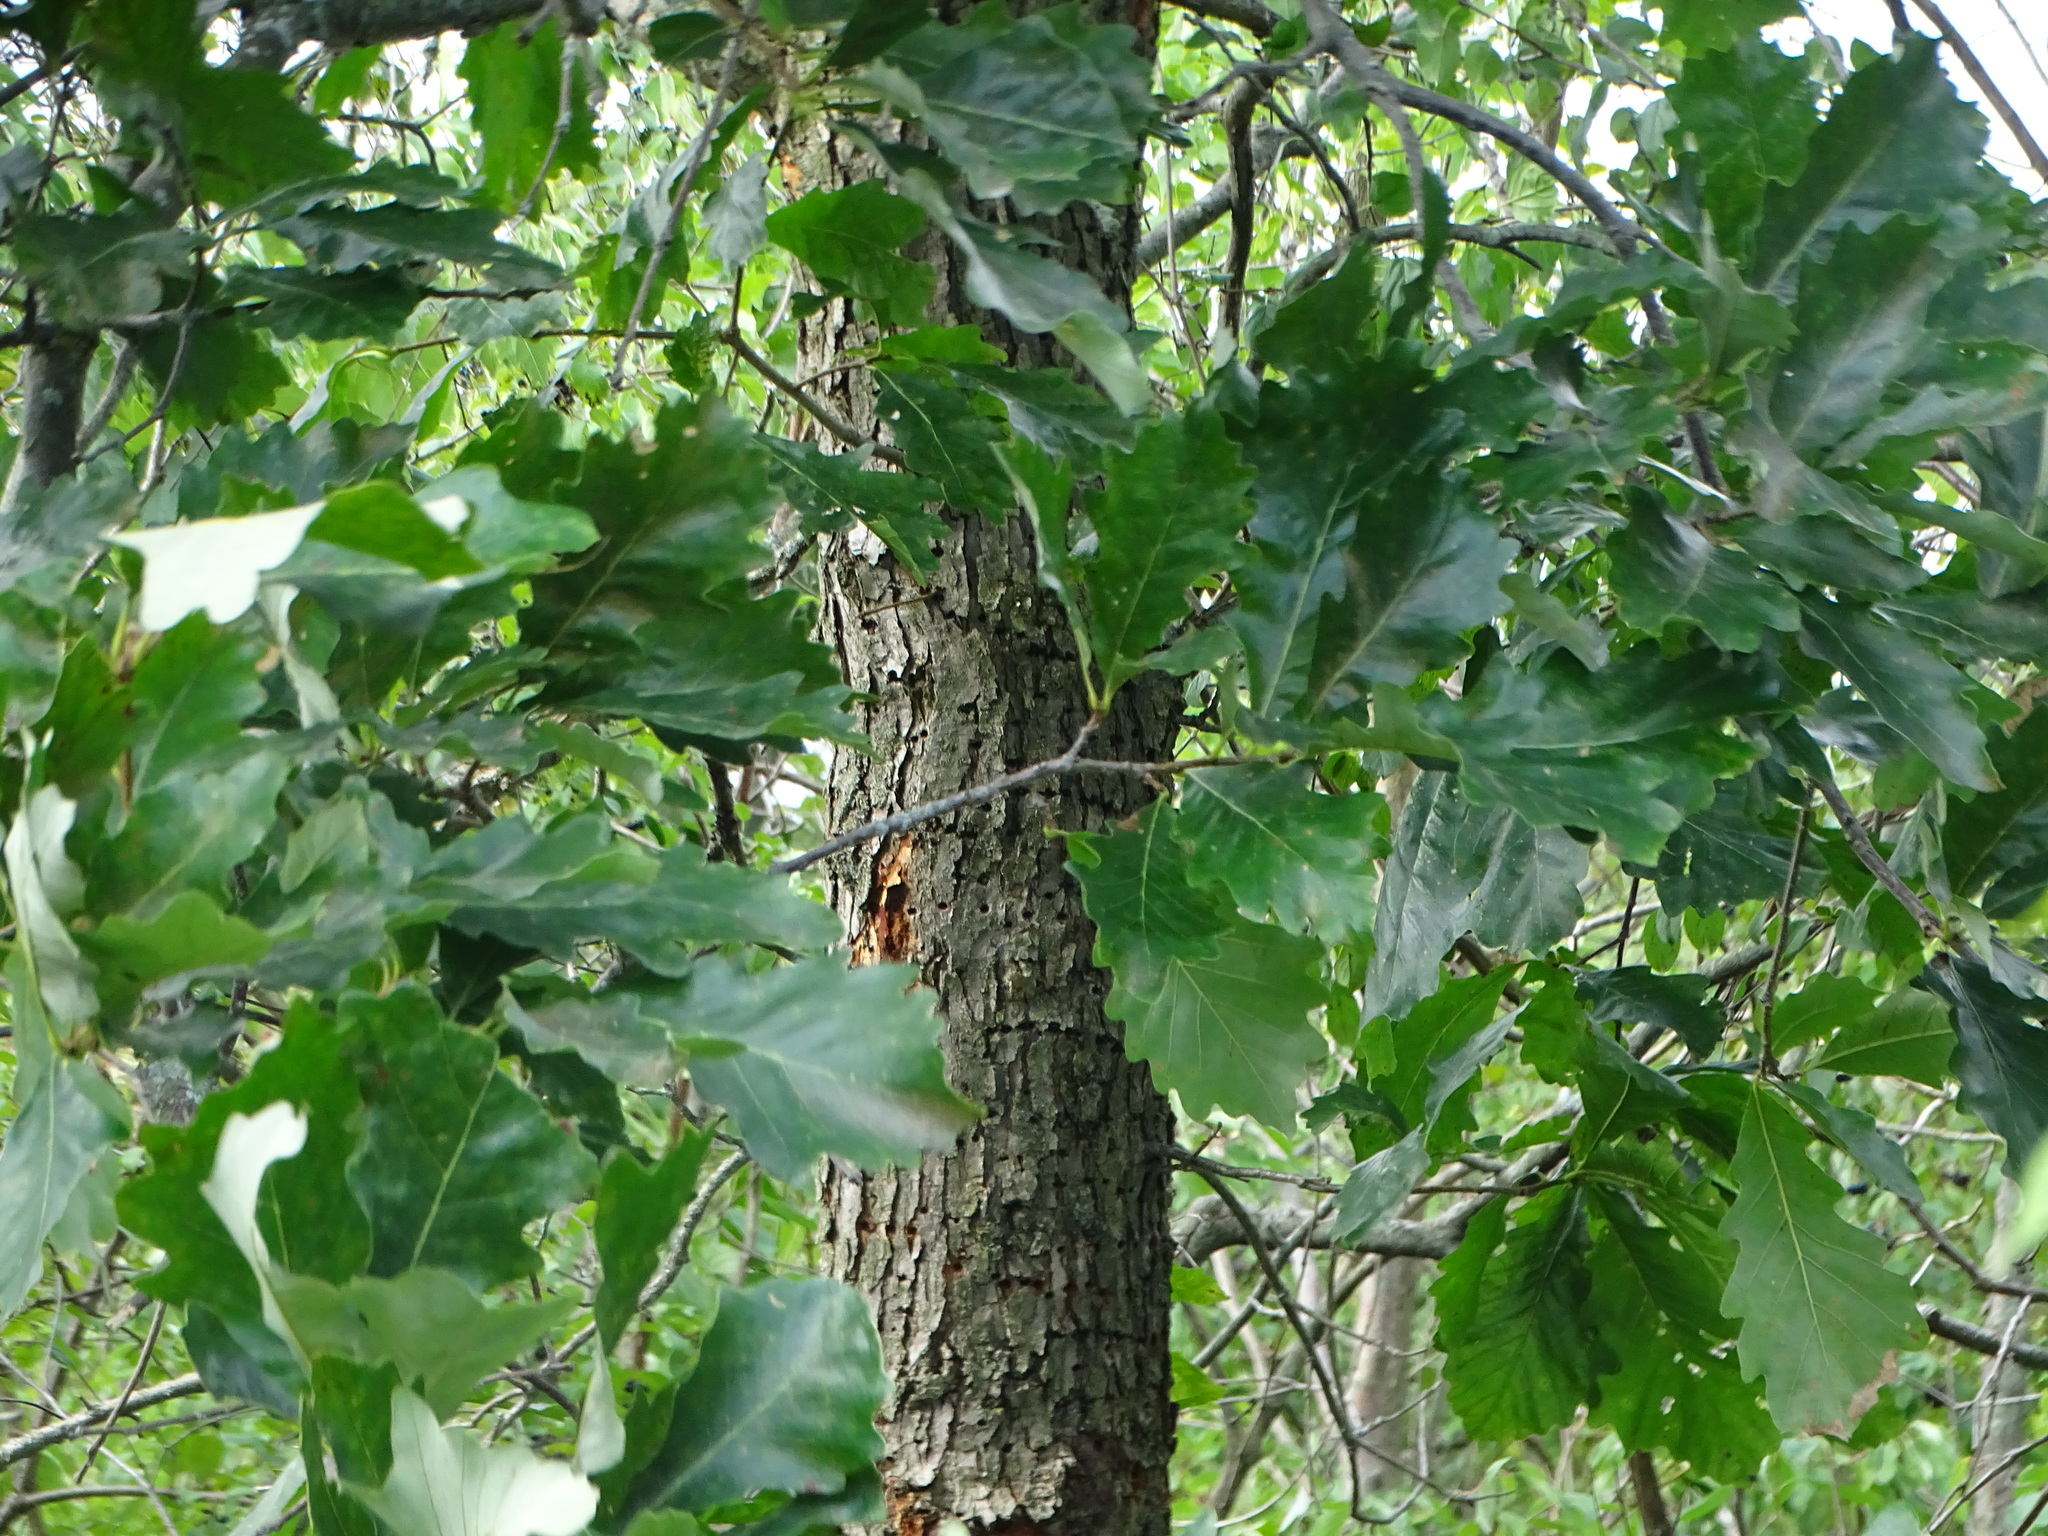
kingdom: Plantae
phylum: Tracheophyta
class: Magnoliopsida
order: Fagales
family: Fagaceae
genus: Quercus
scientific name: Quercus bicolor
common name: Swamp white oak
